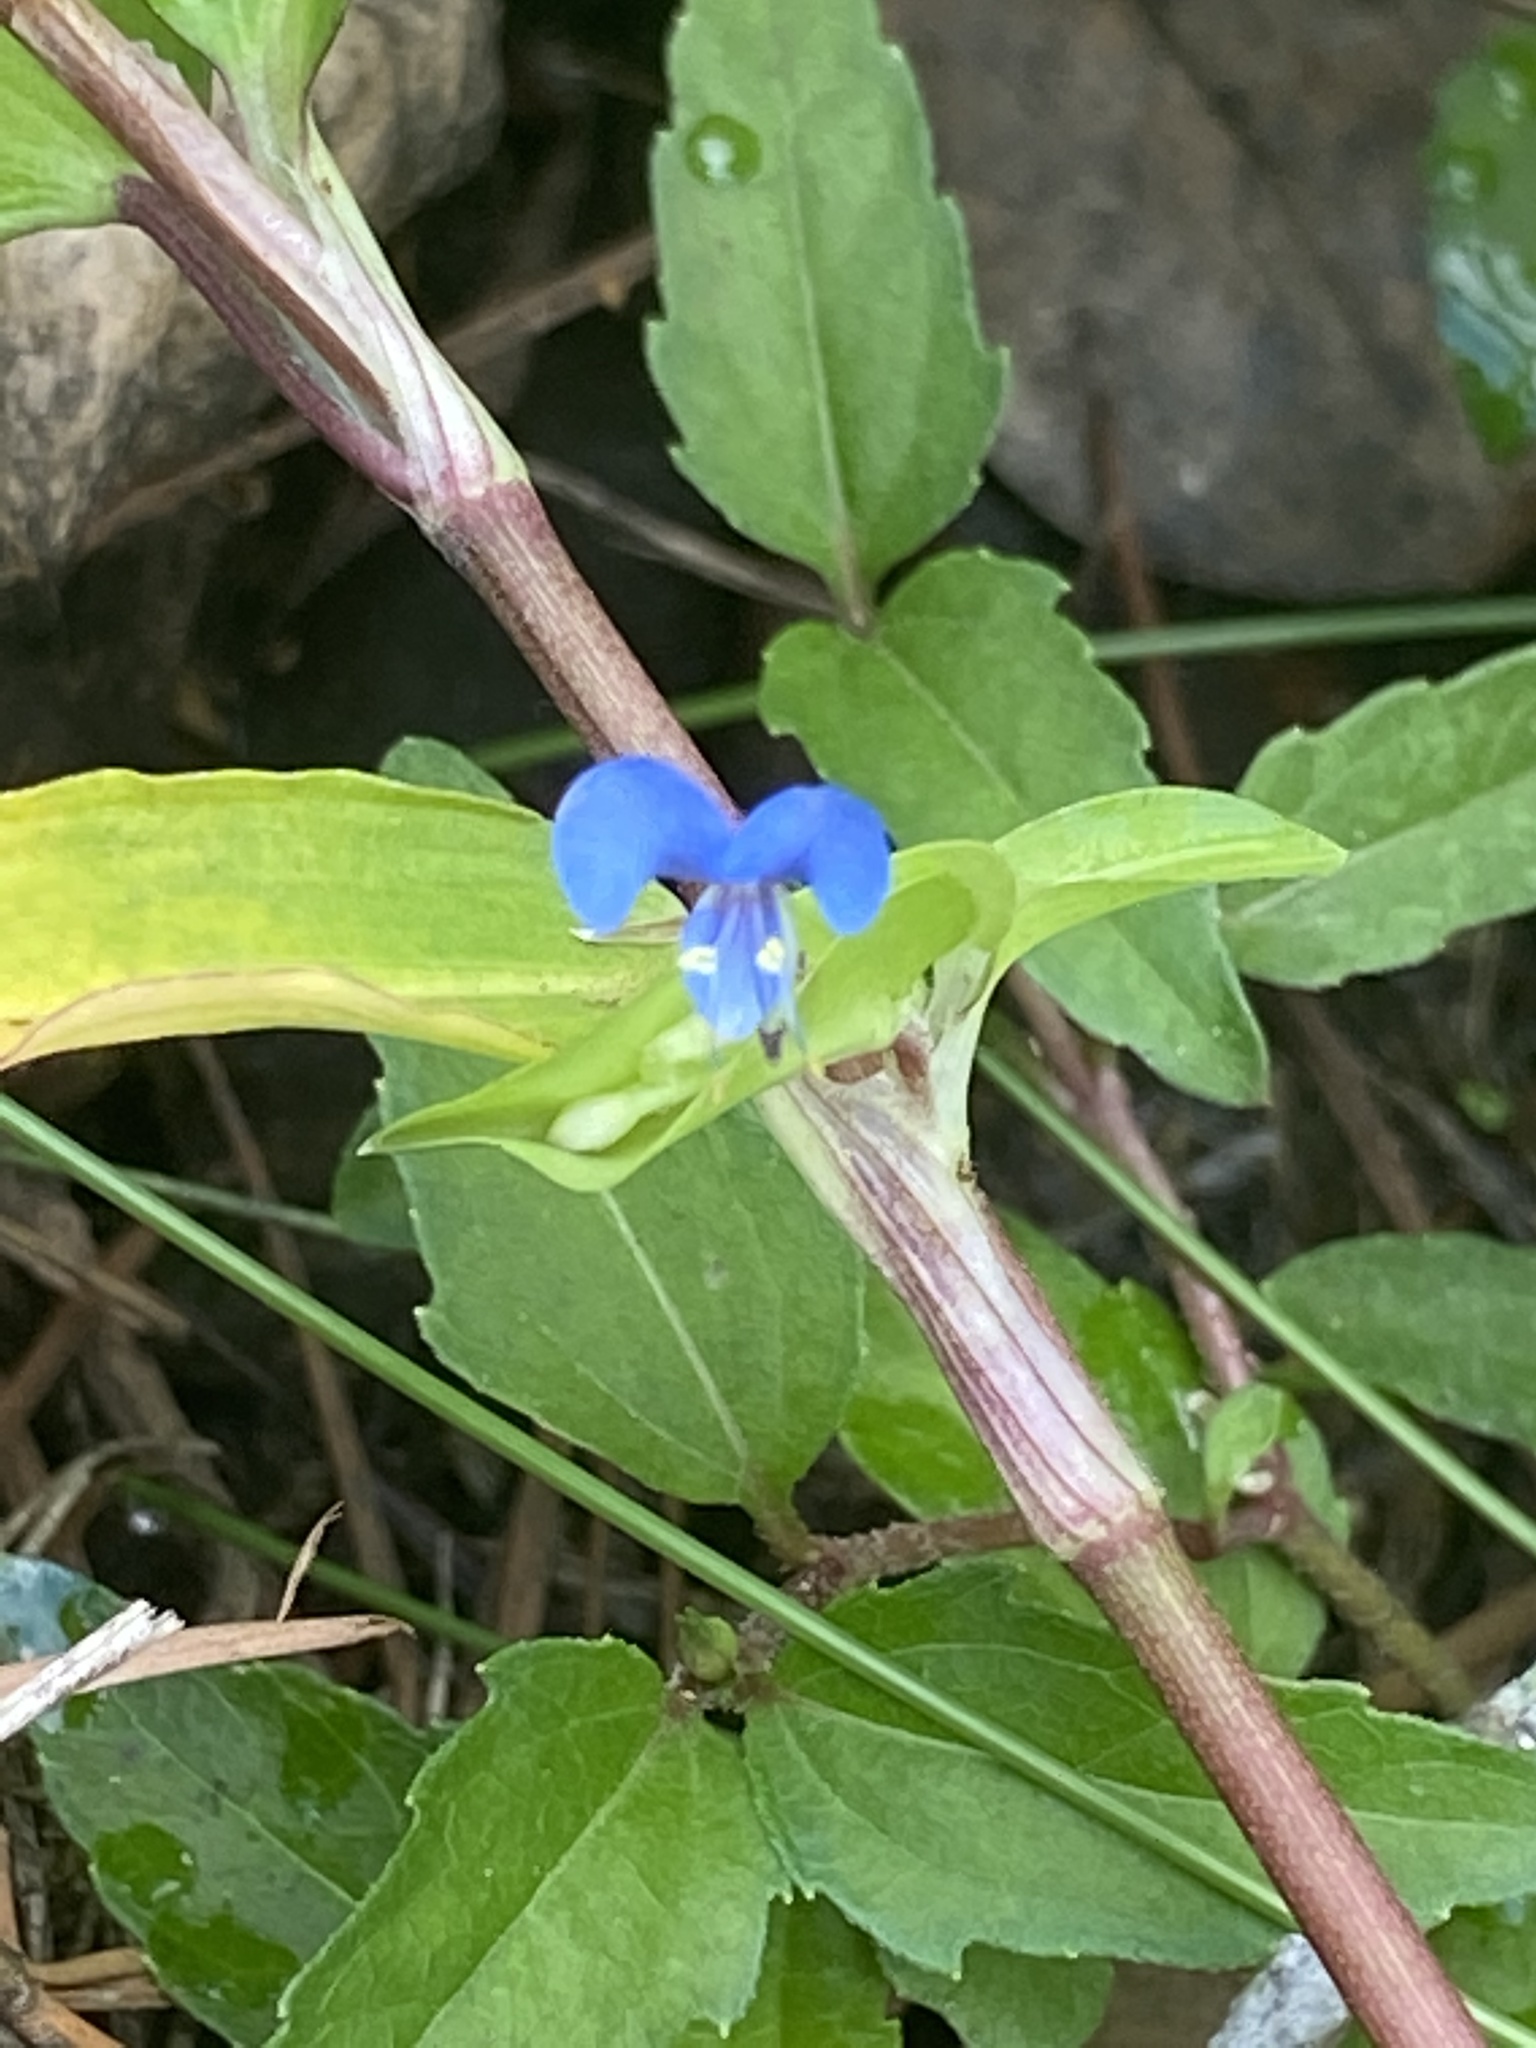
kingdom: Plantae
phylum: Tracheophyta
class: Liliopsida
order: Commelinales
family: Commelinaceae
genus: Commelina
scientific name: Commelina diffusa
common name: Climbing dayflower
